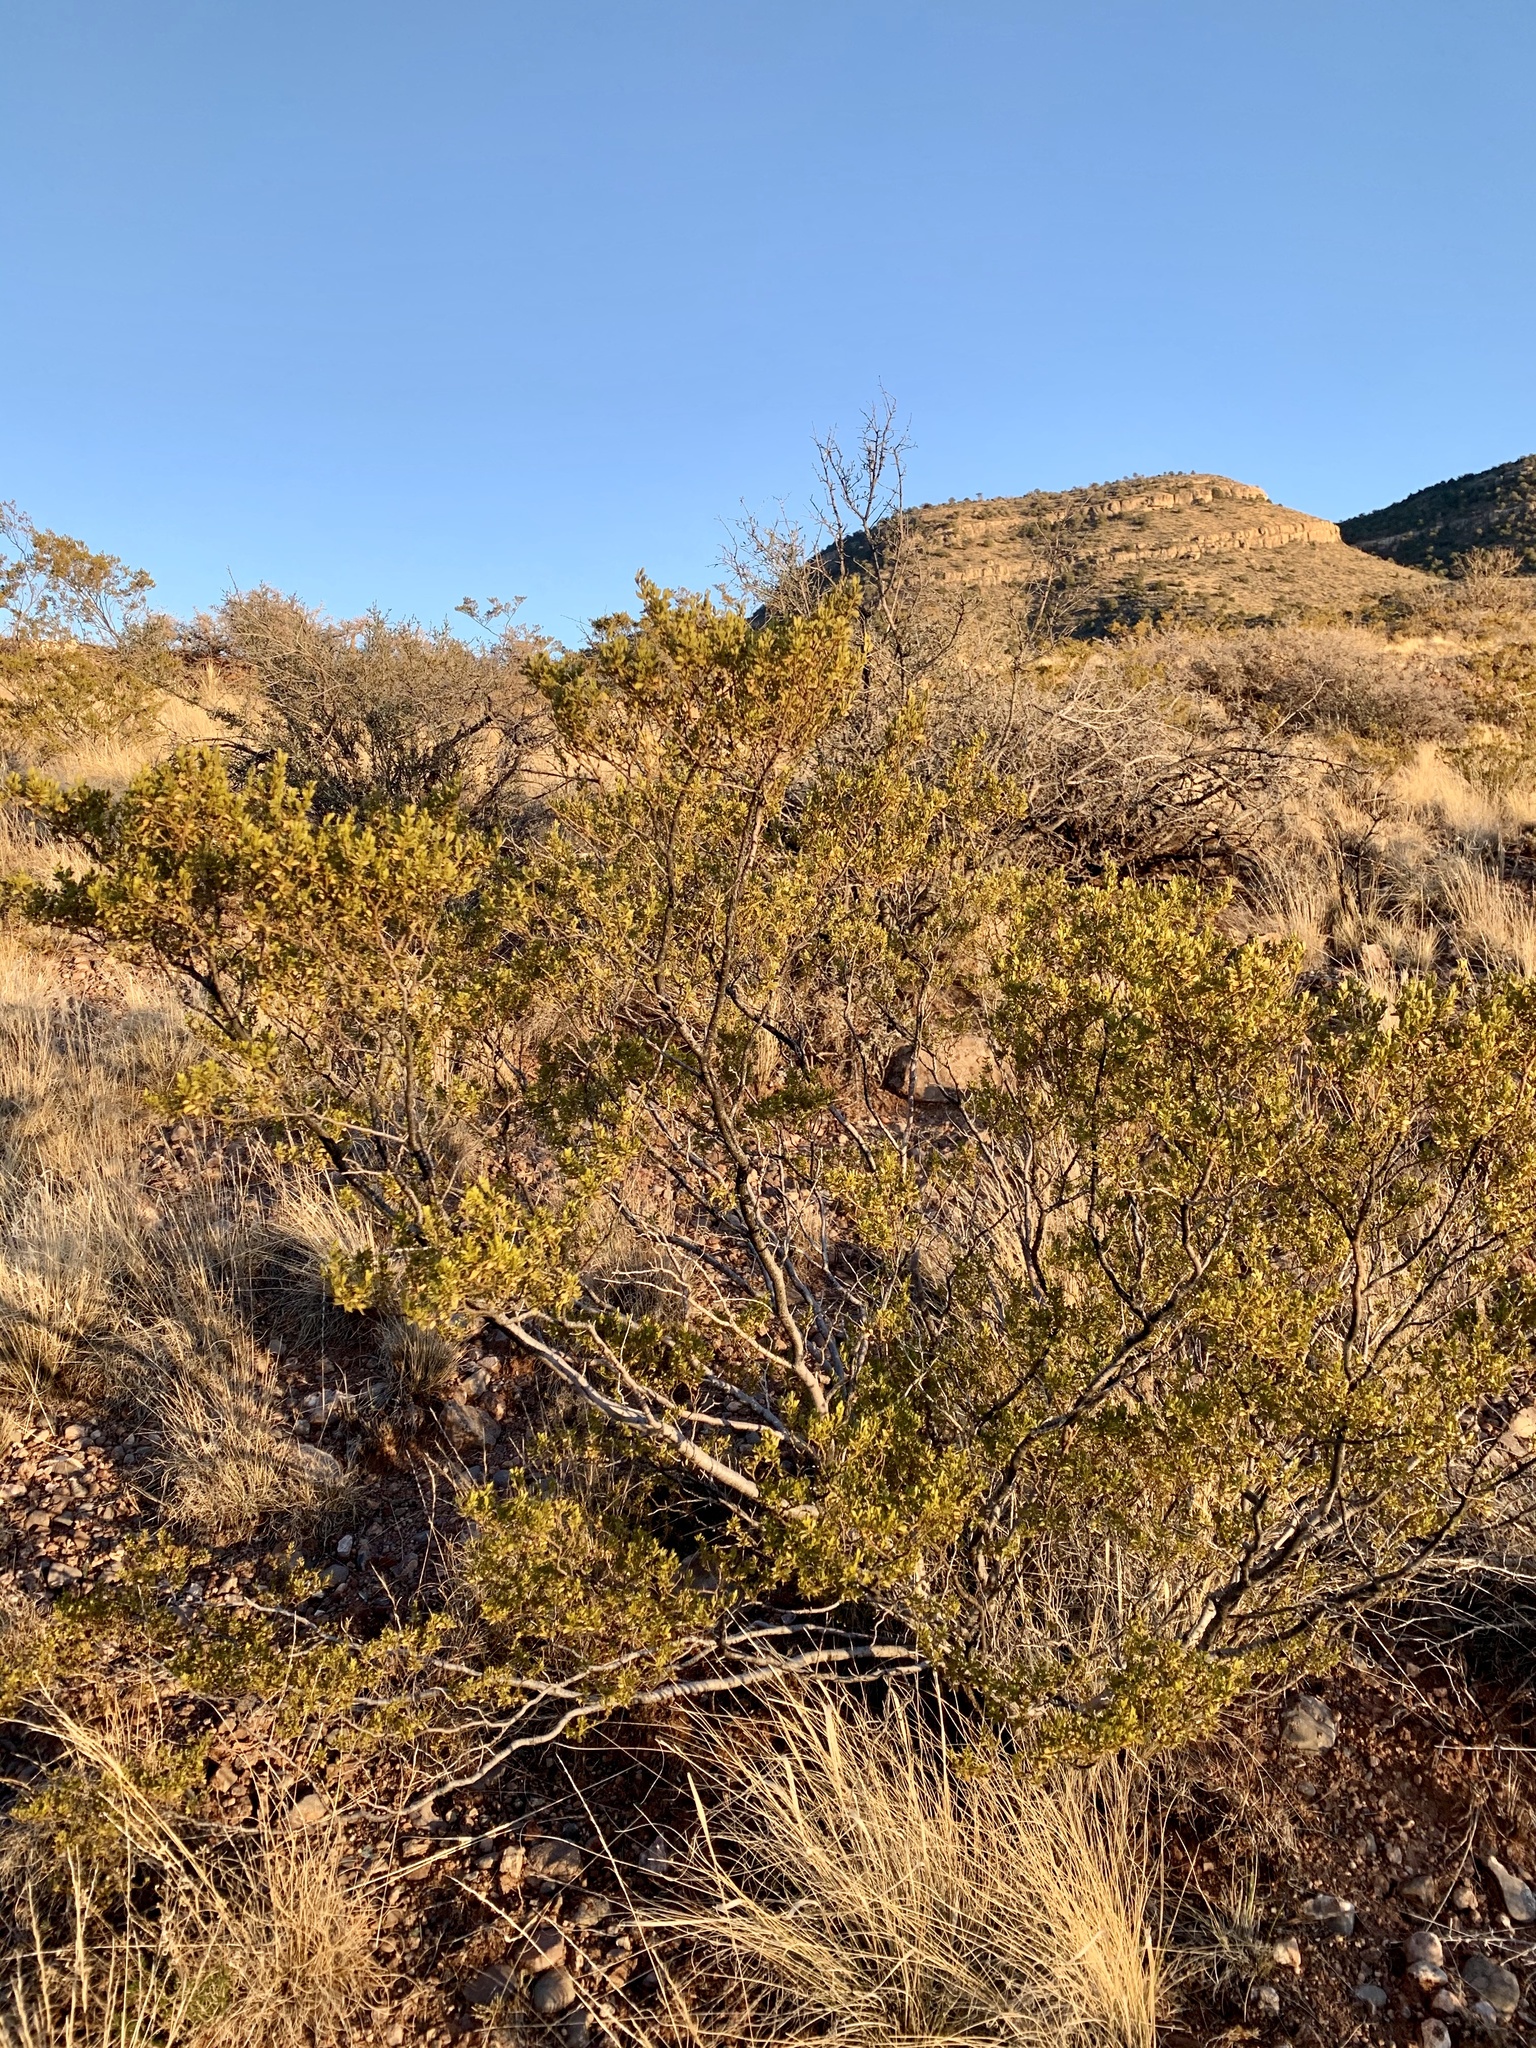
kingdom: Plantae
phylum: Tracheophyta
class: Magnoliopsida
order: Zygophyllales
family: Zygophyllaceae
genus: Larrea
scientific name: Larrea tridentata
